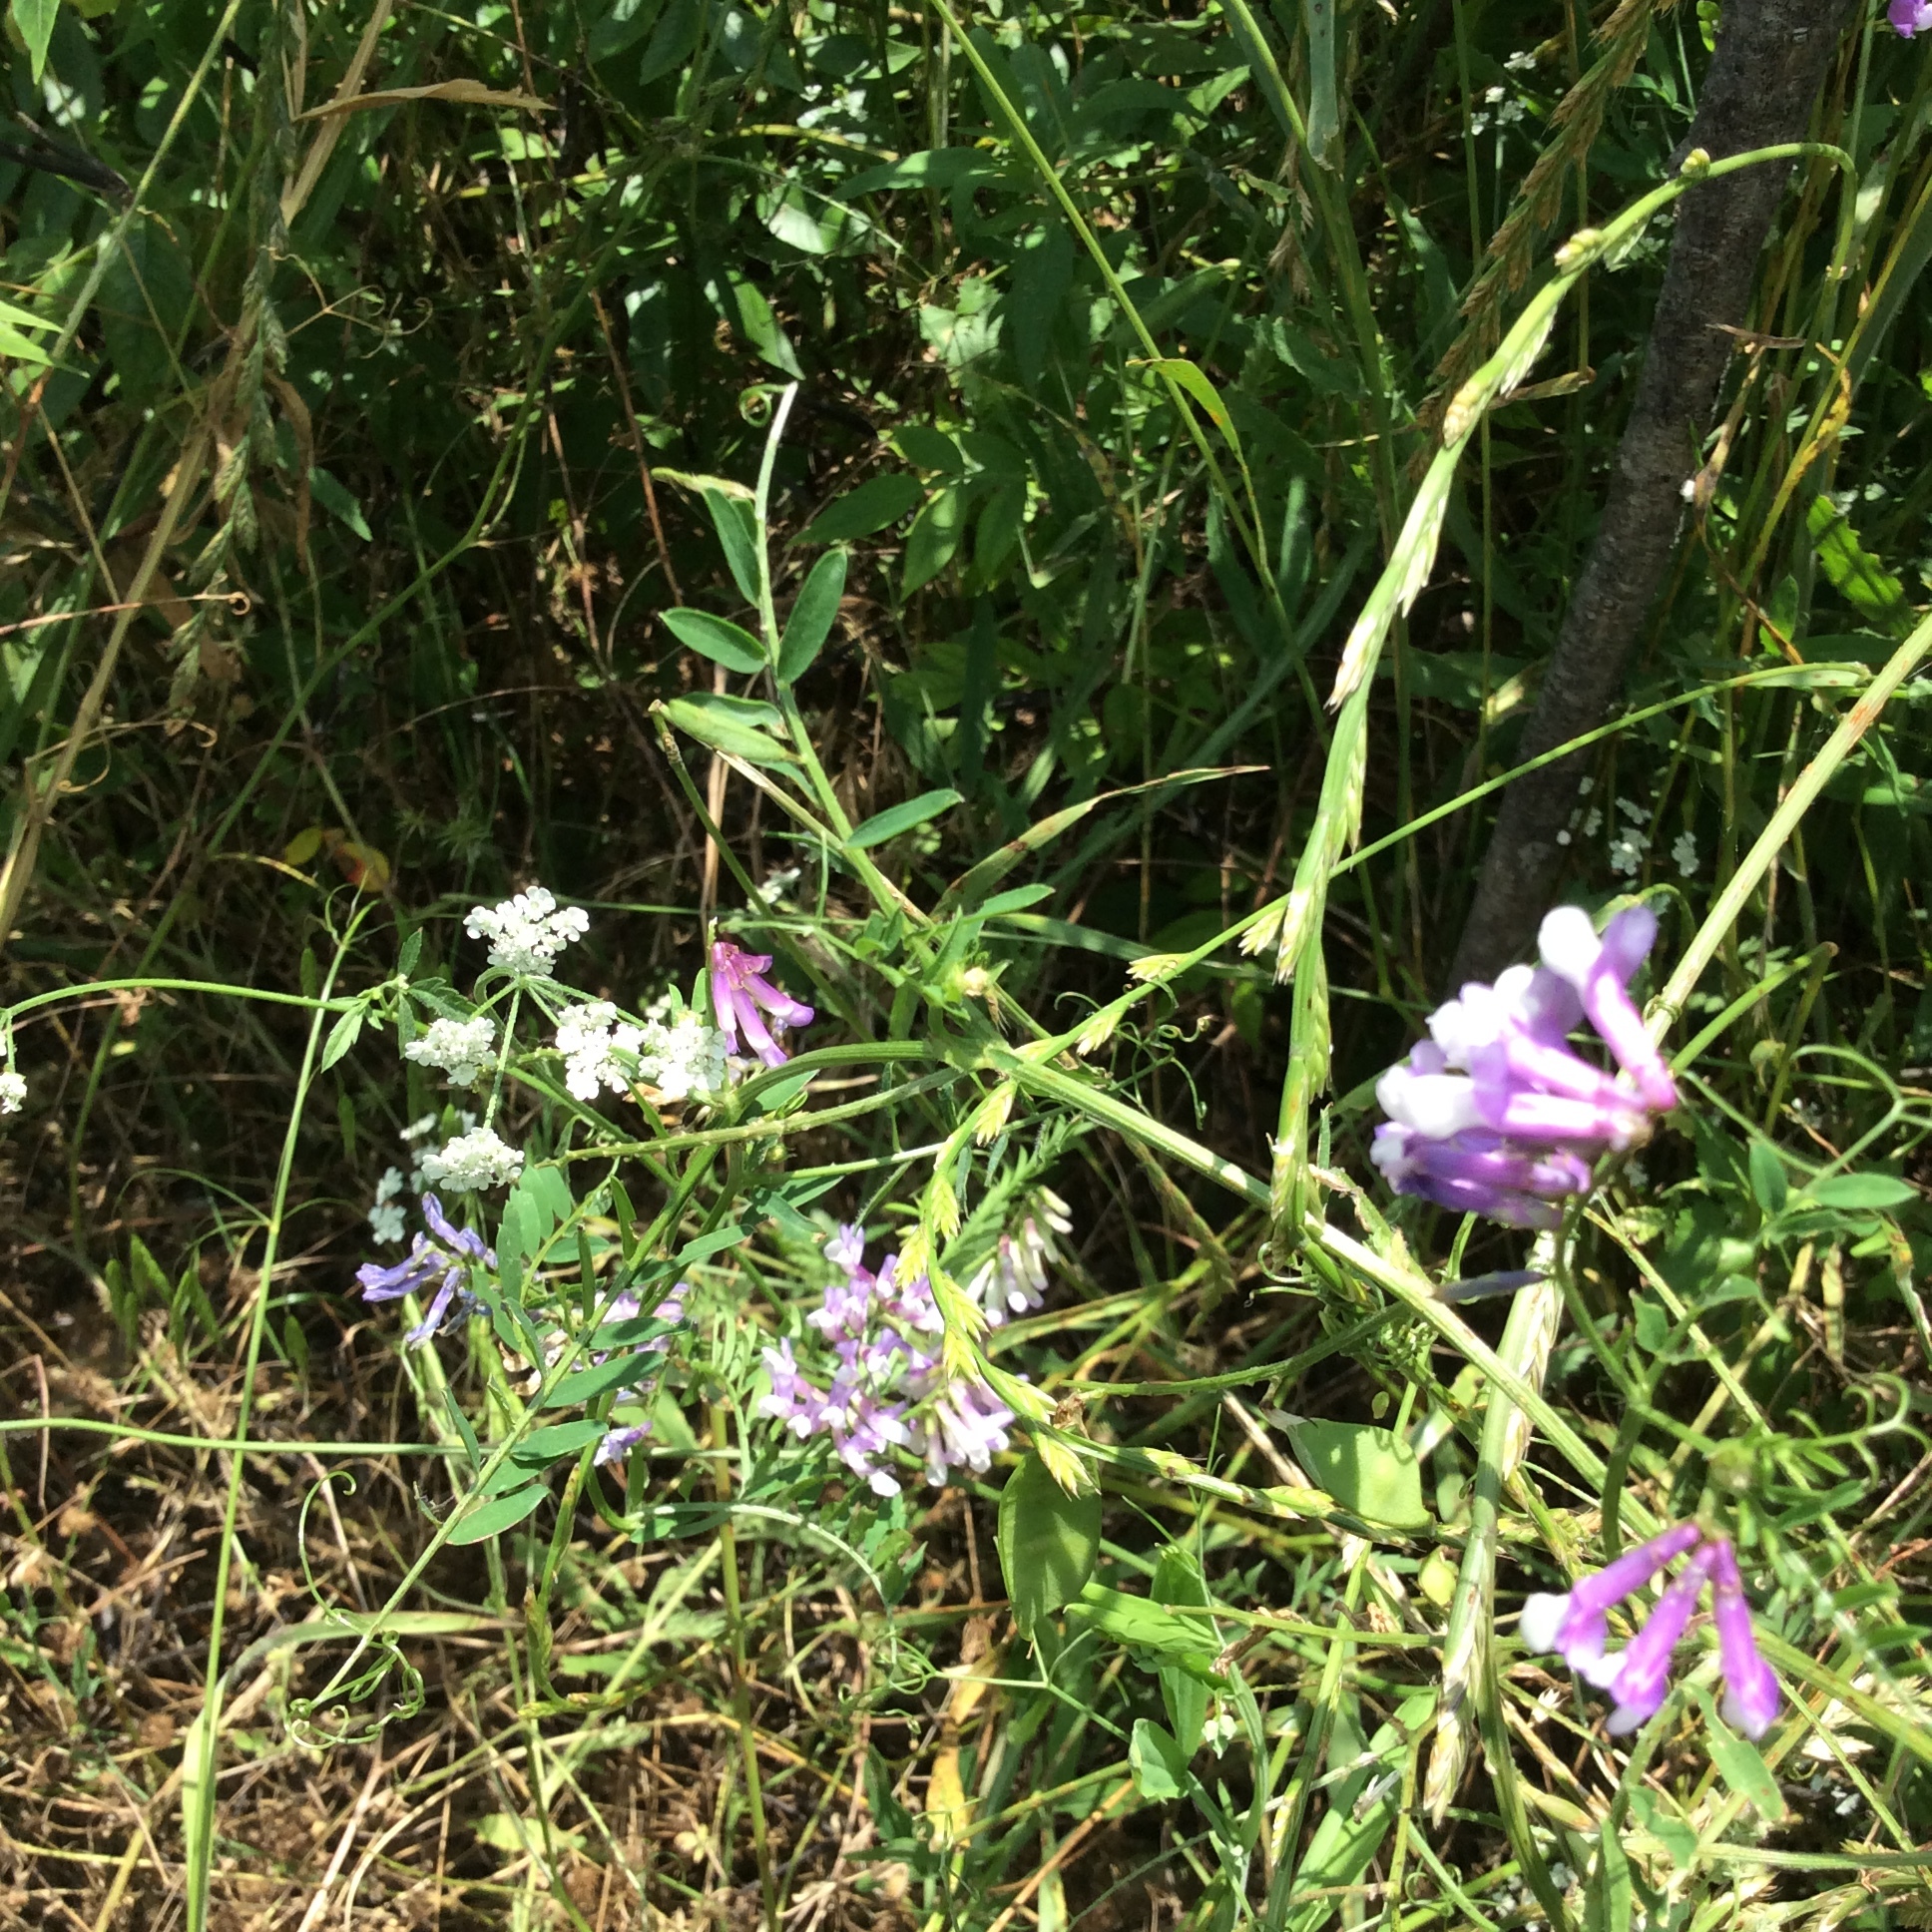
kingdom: Plantae
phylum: Tracheophyta
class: Magnoliopsida
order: Fabales
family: Fabaceae
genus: Vicia
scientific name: Vicia villosa
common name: Fodder vetch
